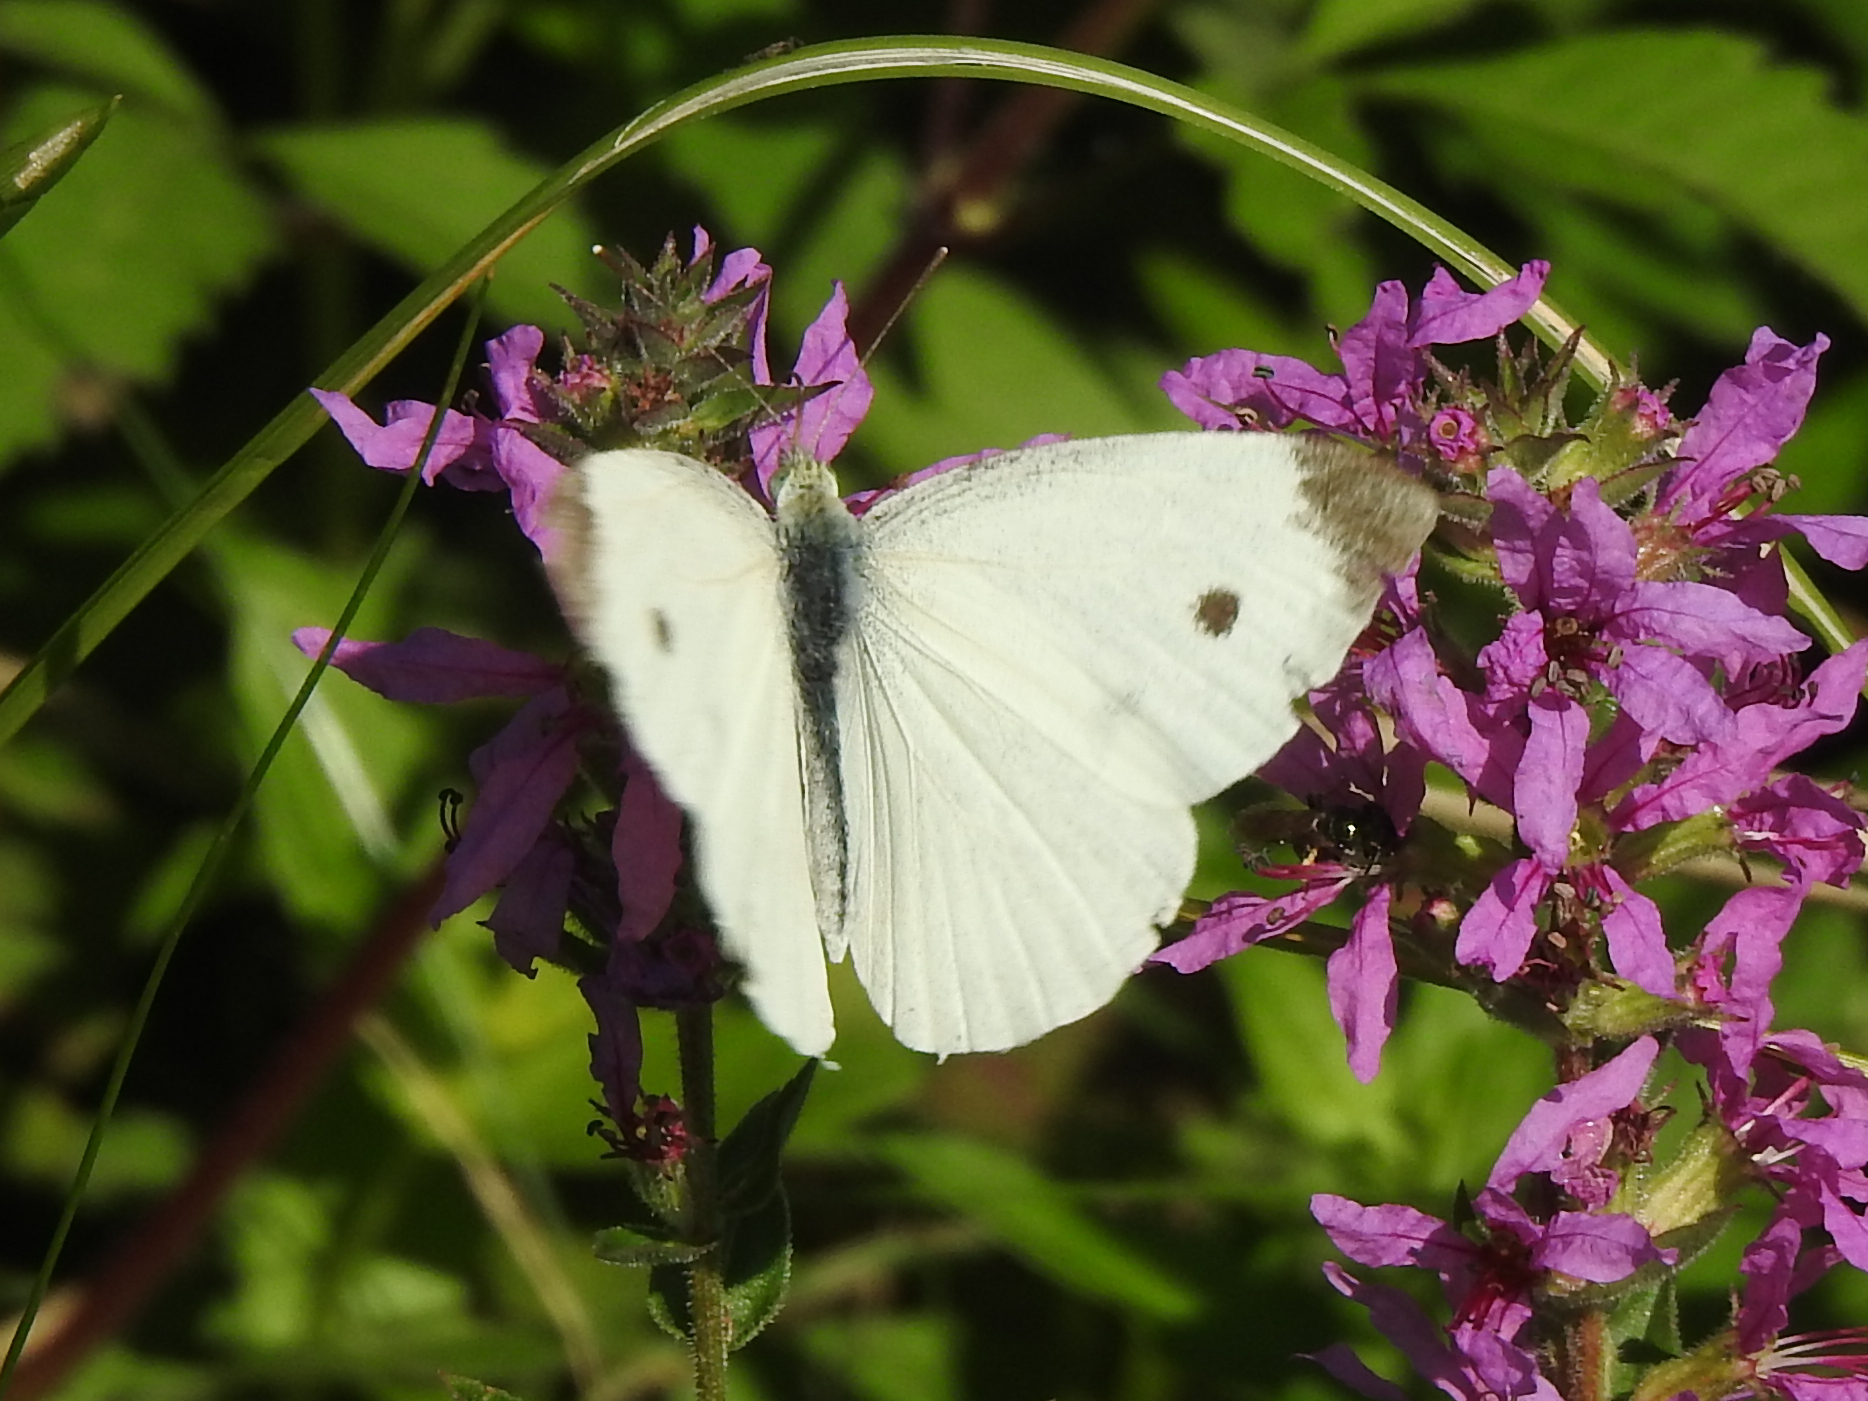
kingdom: Animalia
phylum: Arthropoda
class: Insecta
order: Lepidoptera
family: Pieridae
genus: Pieris
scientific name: Pieris rapae
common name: Small white
